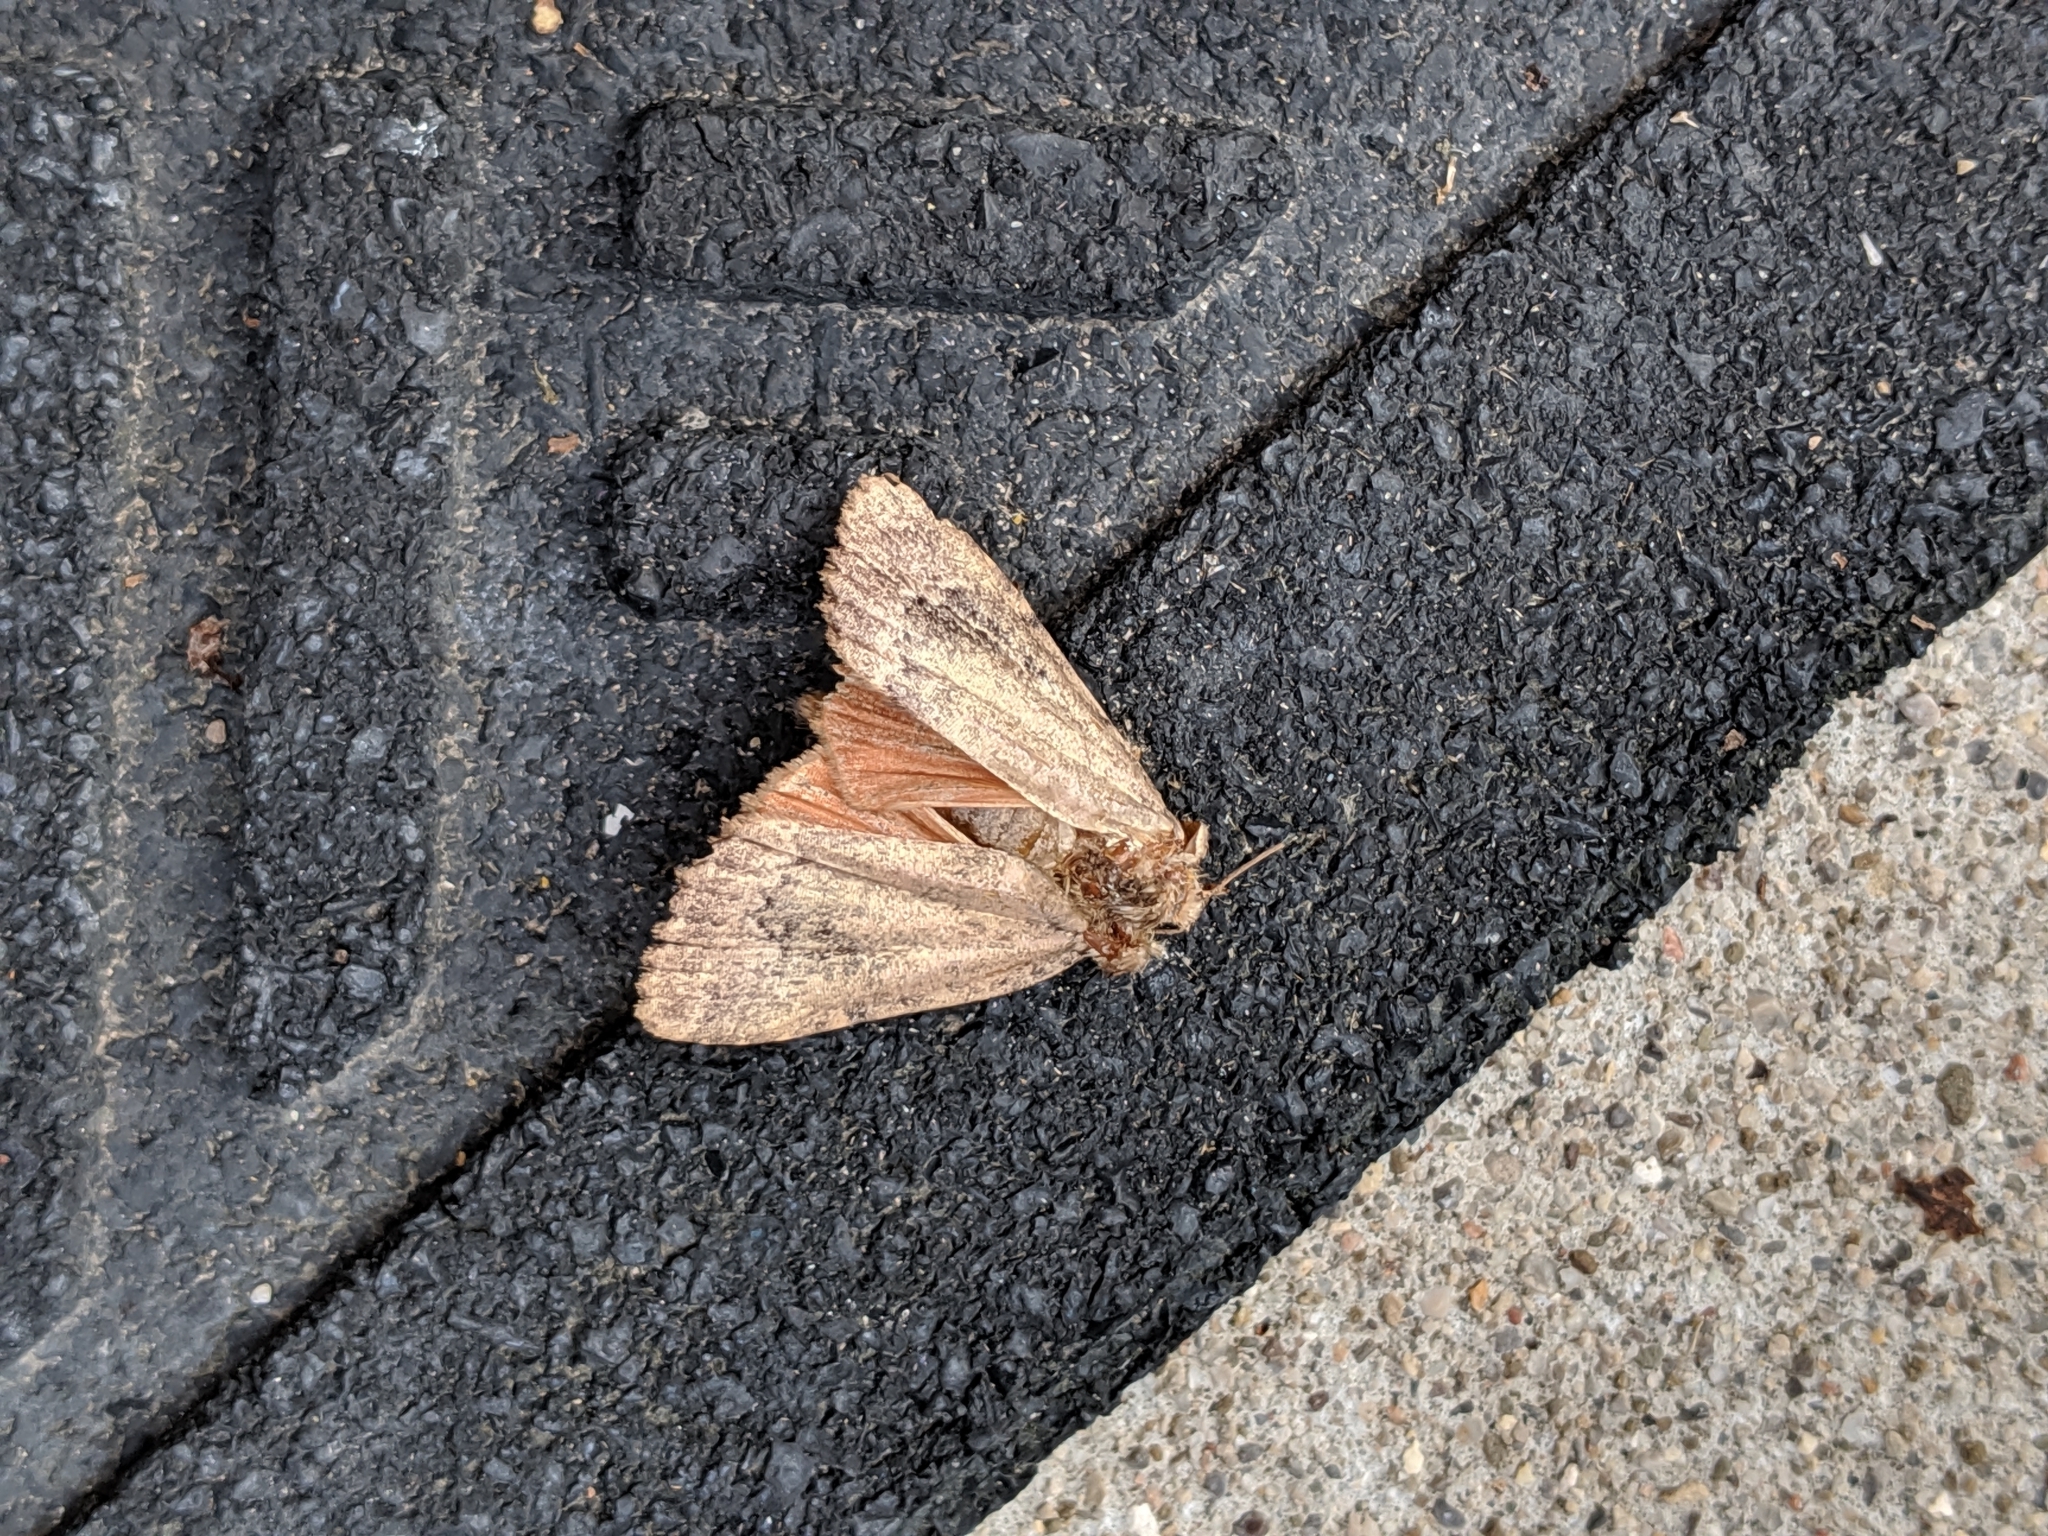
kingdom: Animalia
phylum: Arthropoda
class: Insecta
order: Lepidoptera
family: Noctuidae
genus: Amphipyra
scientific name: Amphipyra pyramidoides
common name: American copper underwing
